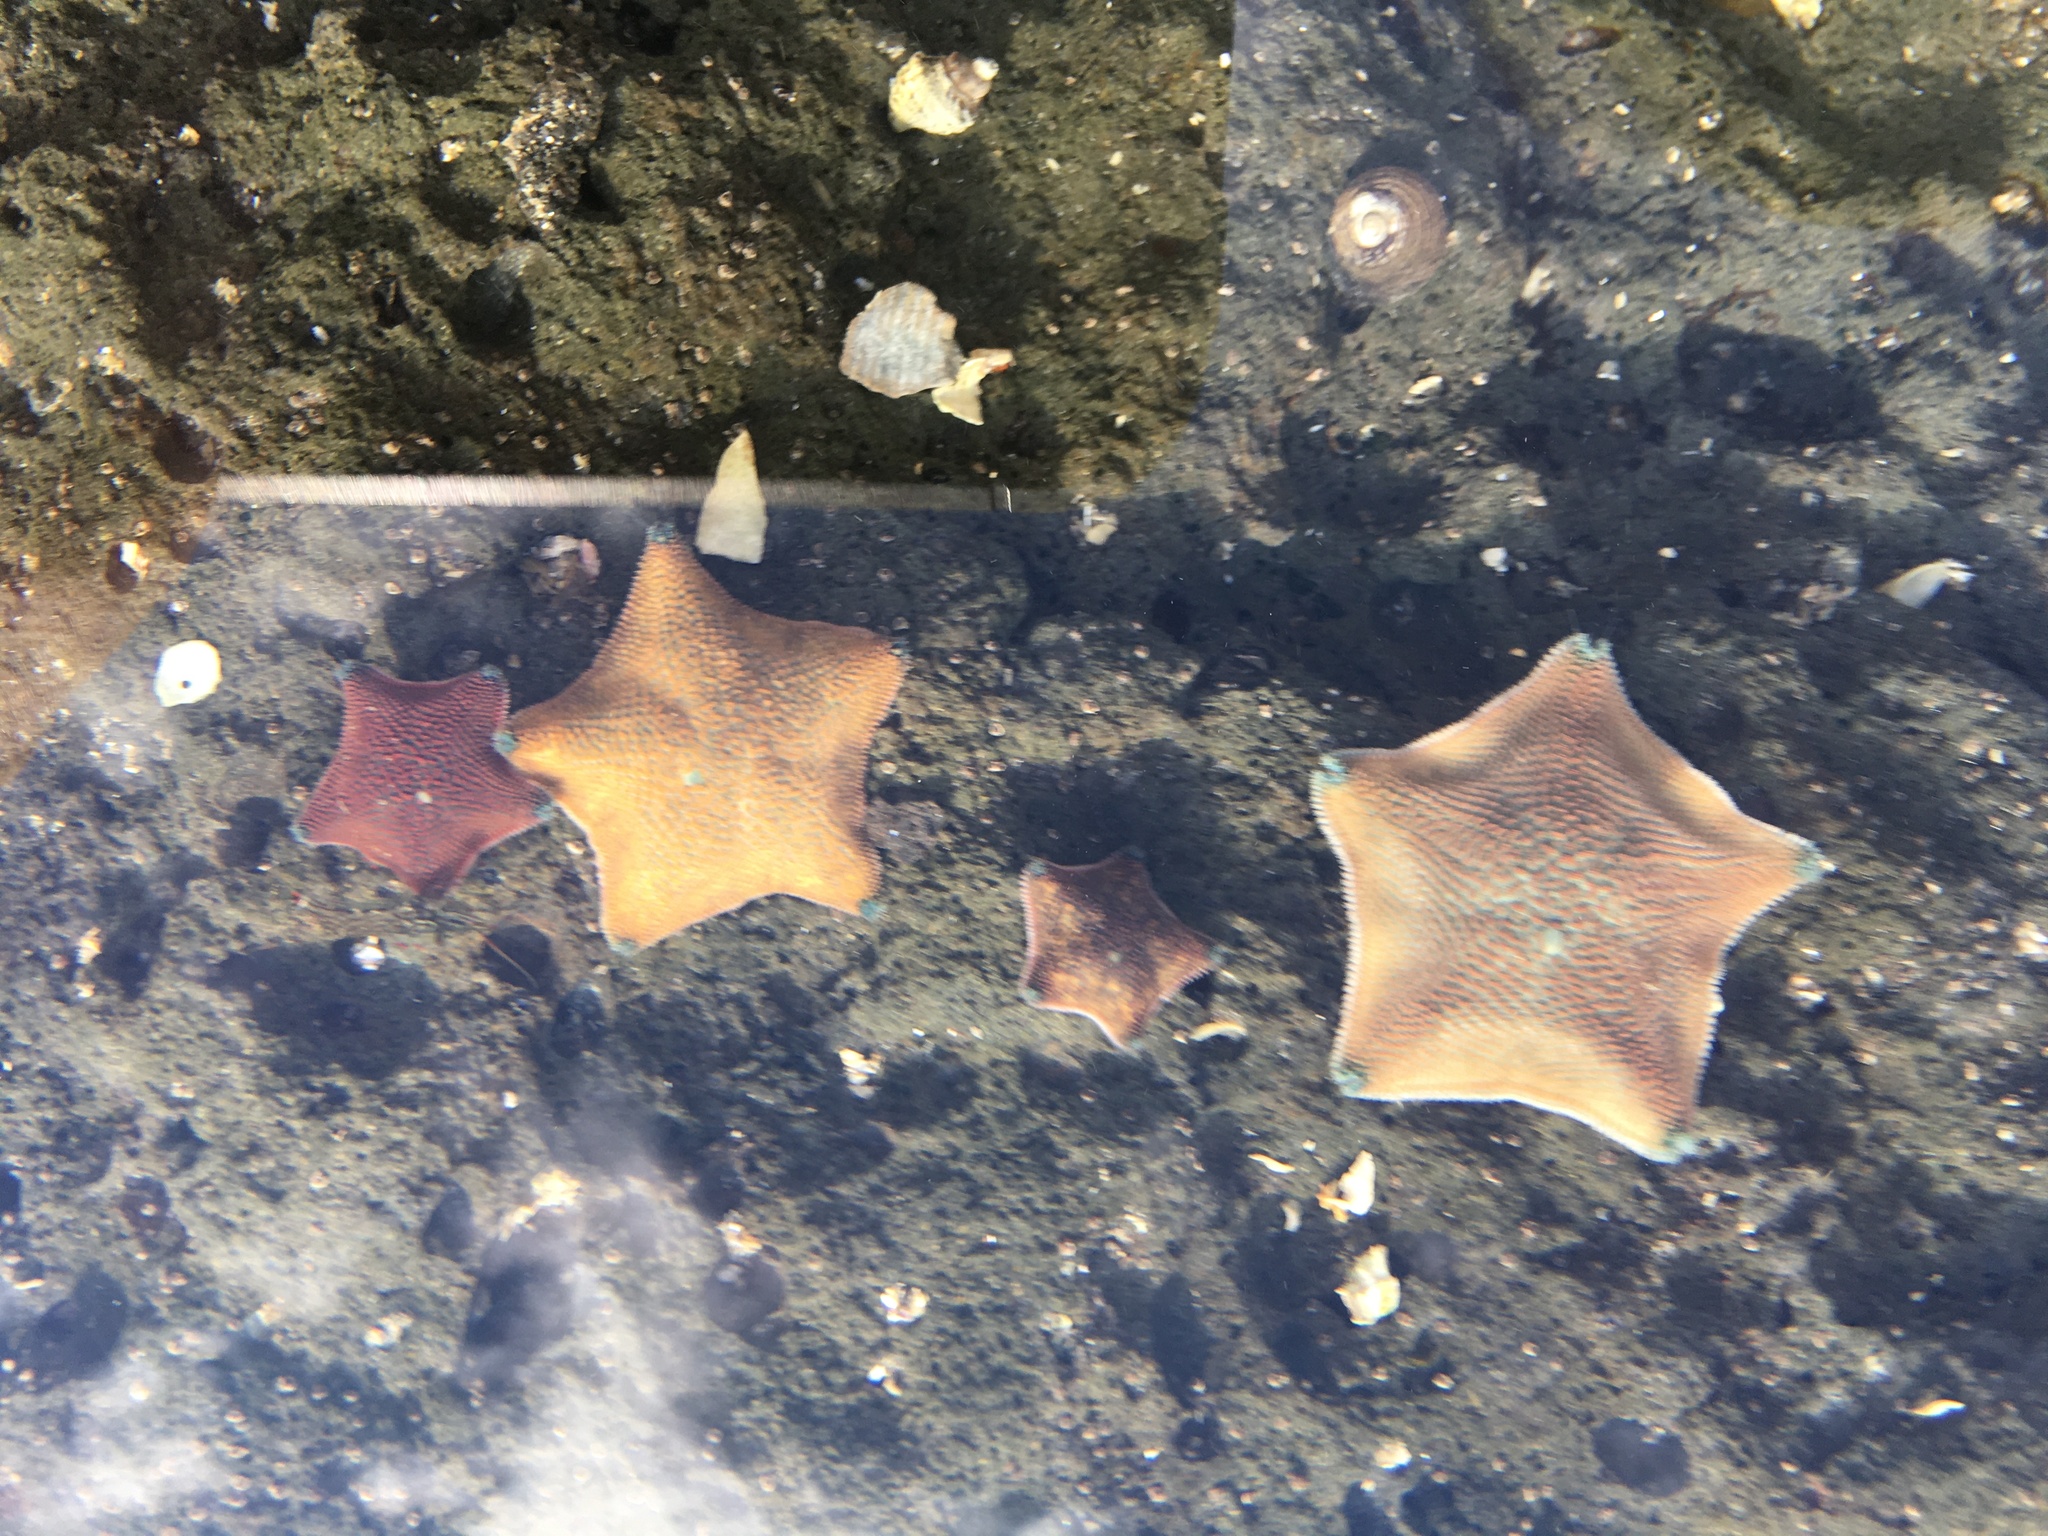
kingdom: Animalia
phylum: Echinodermata
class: Asteroidea
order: Valvatida
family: Asterinidae
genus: Patiriella
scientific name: Patiriella regularis
